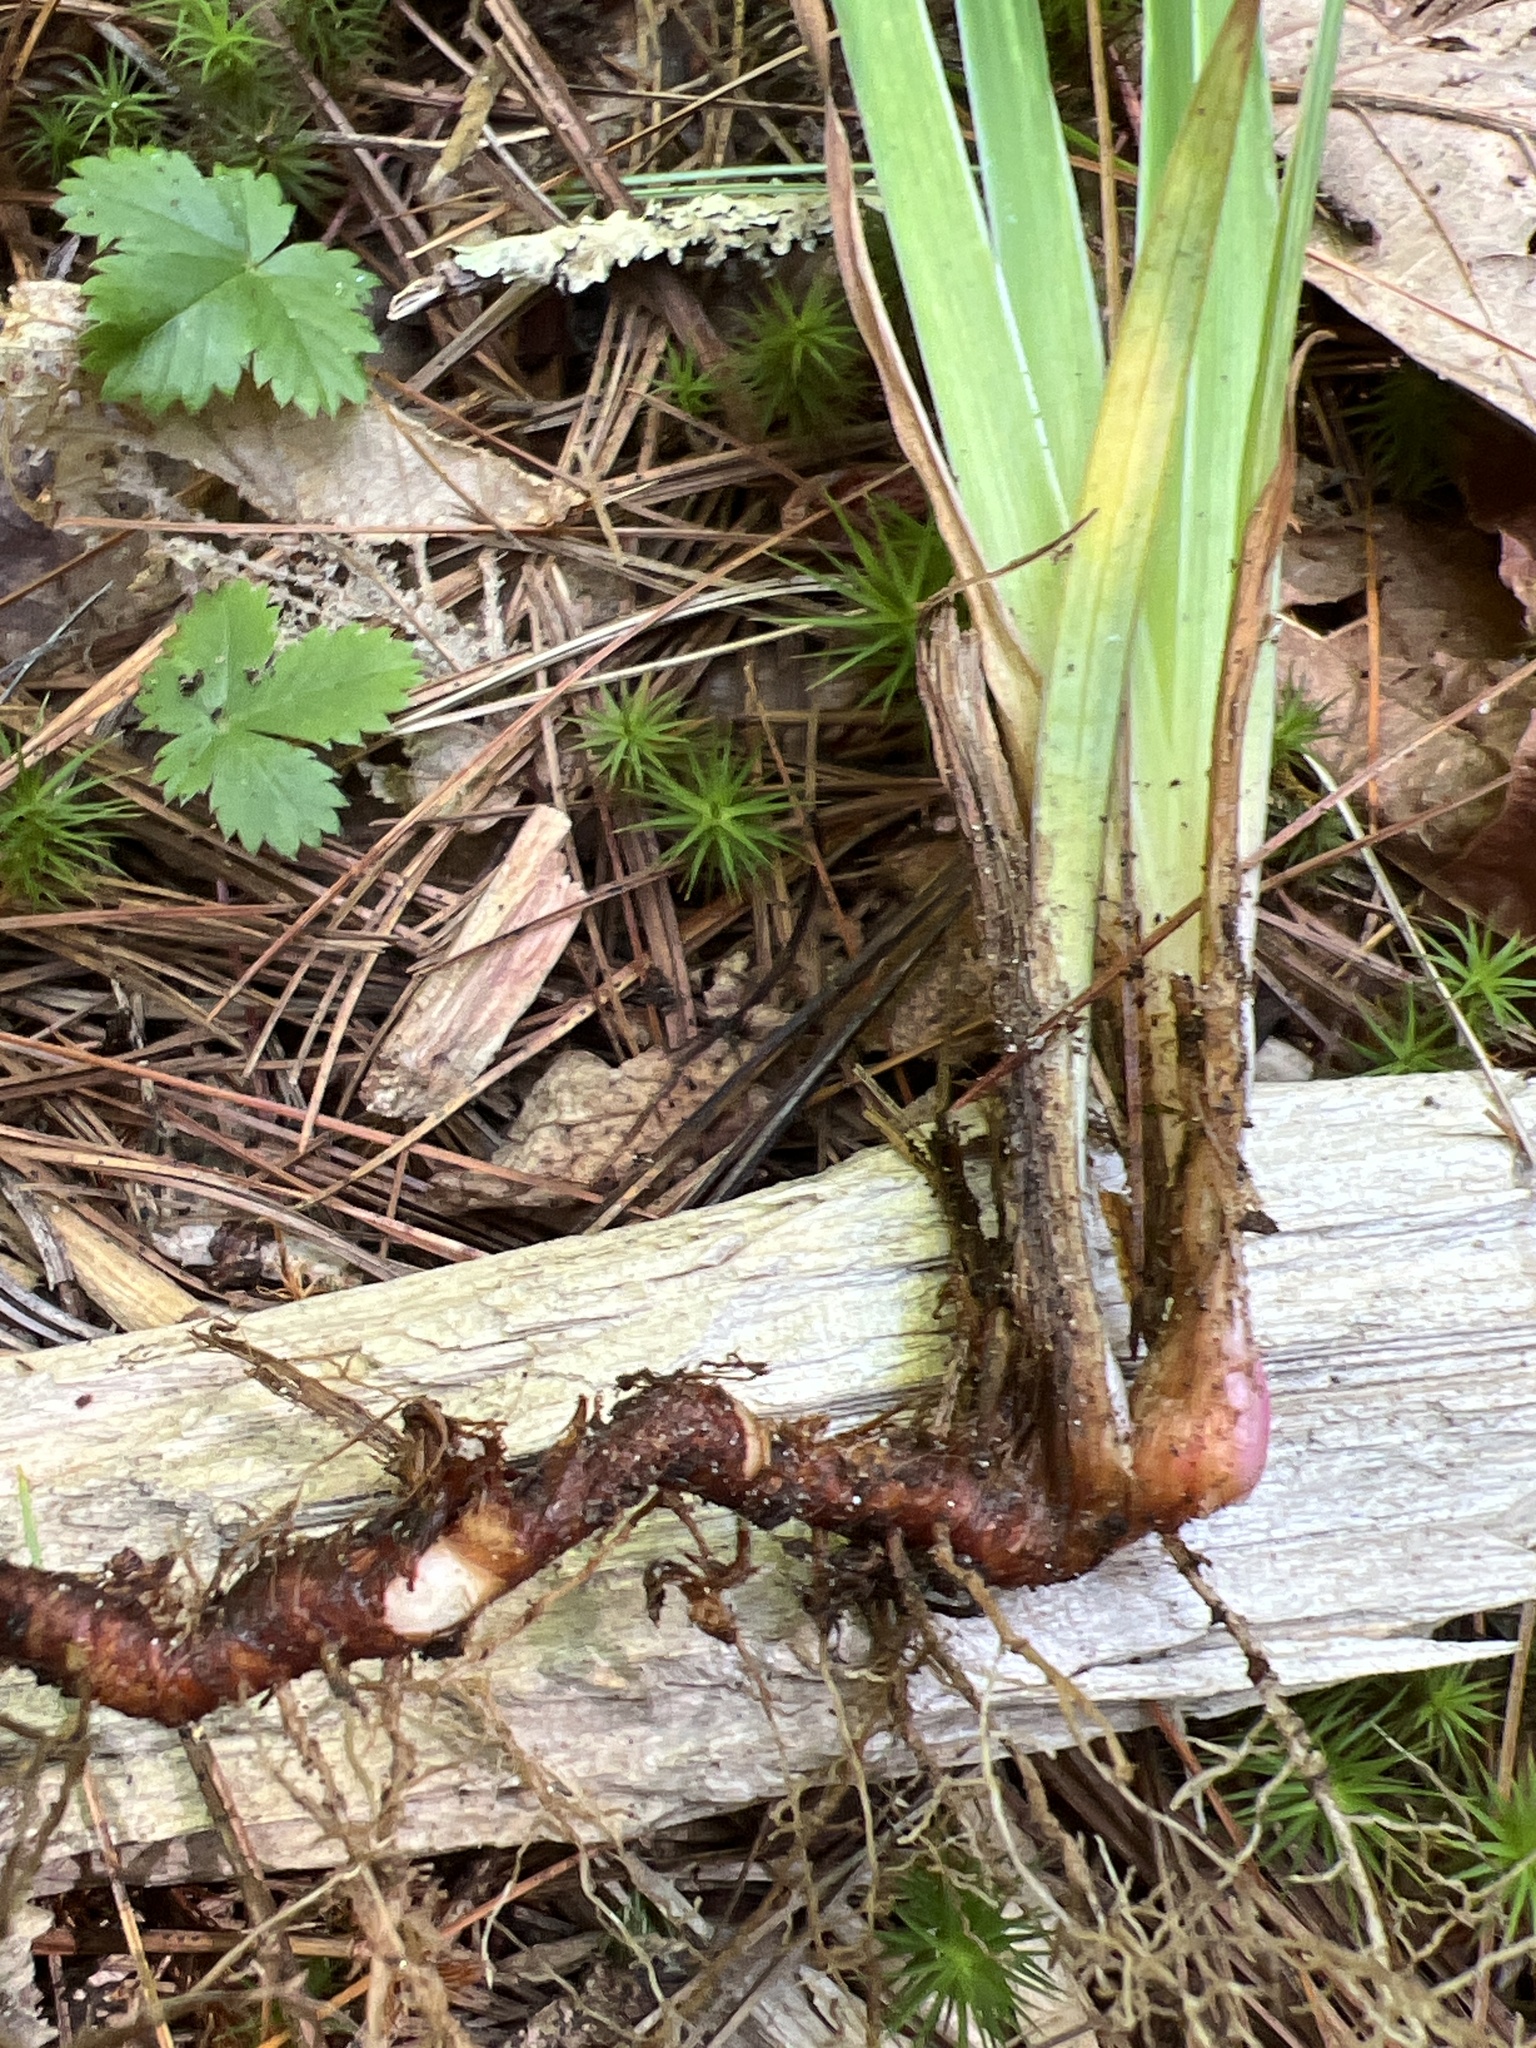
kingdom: Plantae
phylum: Tracheophyta
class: Liliopsida
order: Asparagales
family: Iridaceae
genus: Iris
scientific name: Iris verna
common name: Dwarf iris
